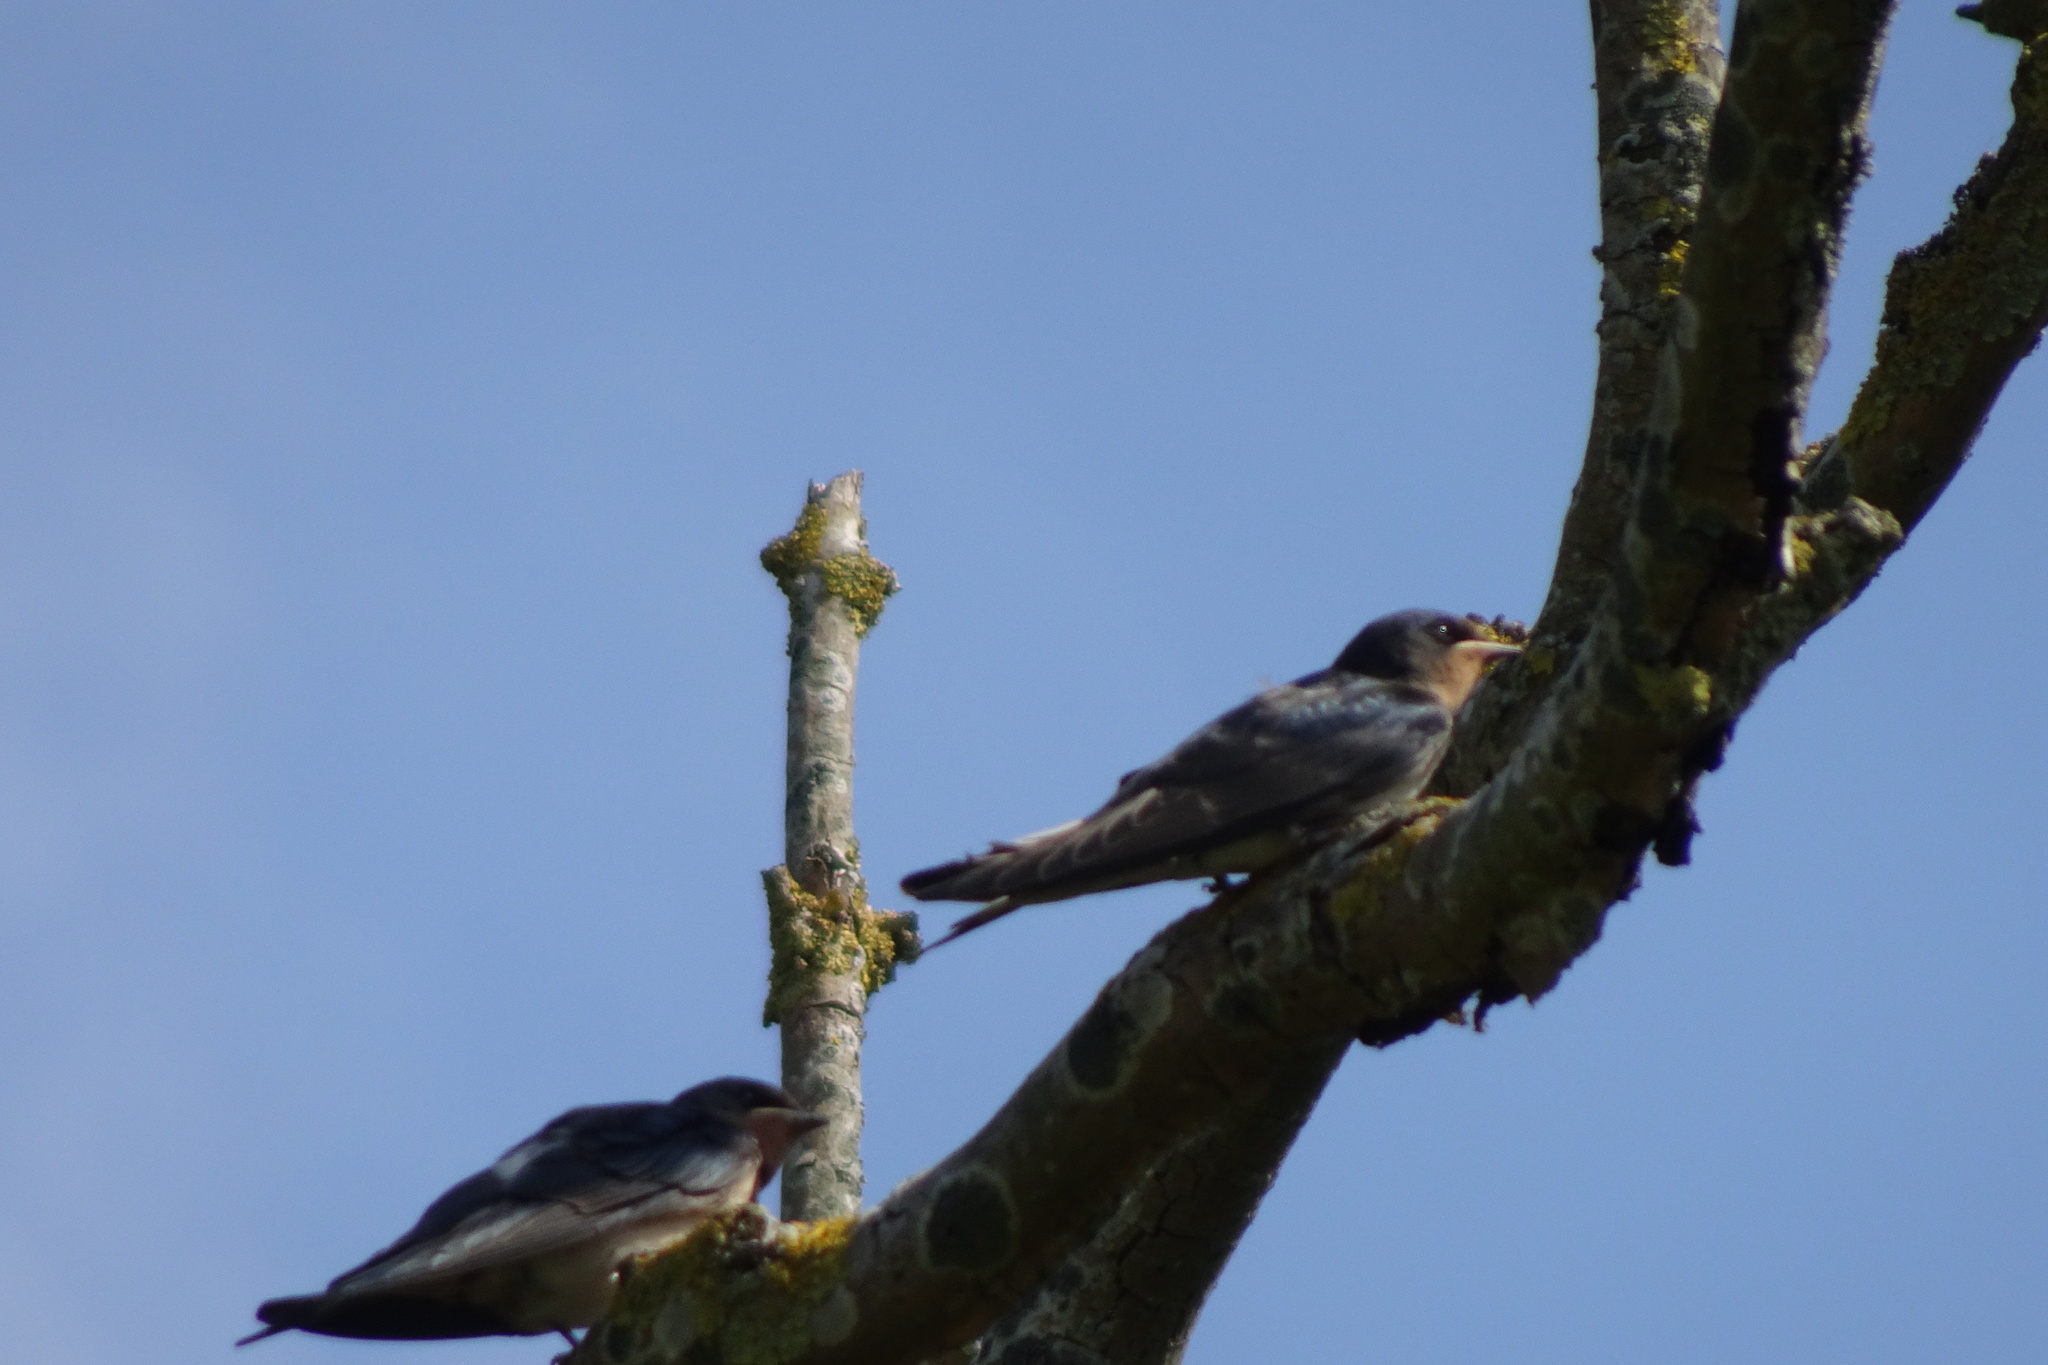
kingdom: Animalia
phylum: Chordata
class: Aves
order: Passeriformes
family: Hirundinidae
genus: Hirundo
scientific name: Hirundo rustica
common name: Barn swallow
